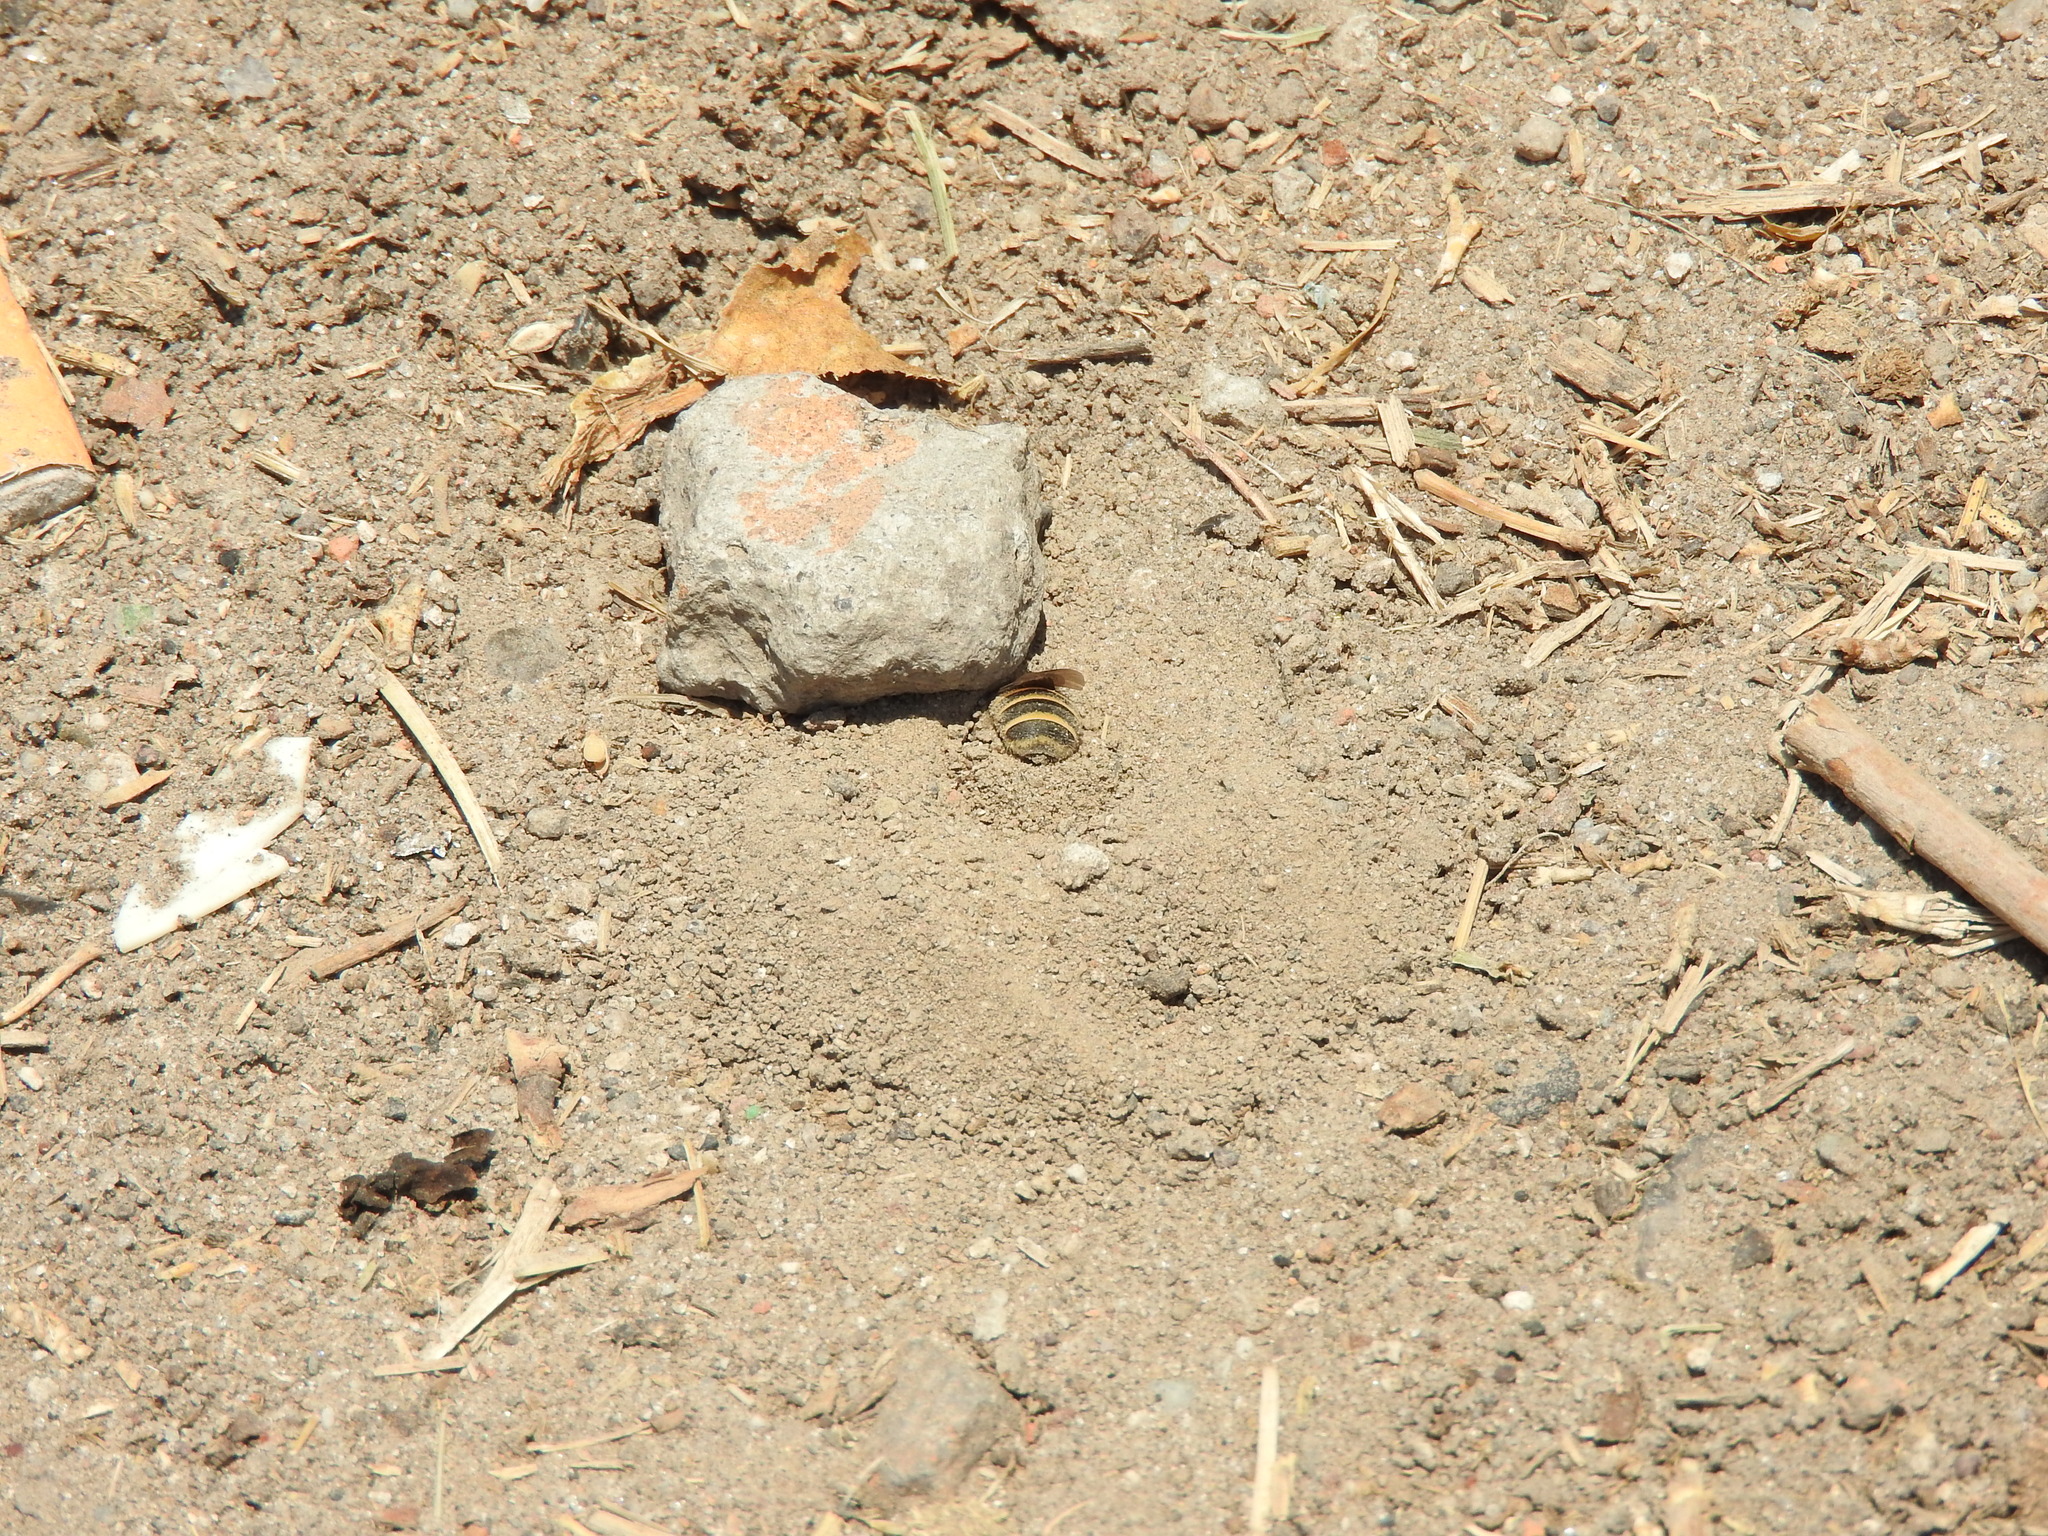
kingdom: Animalia
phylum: Arthropoda
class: Insecta
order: Hymenoptera
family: Apidae
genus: Diadasia
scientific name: Diadasia
